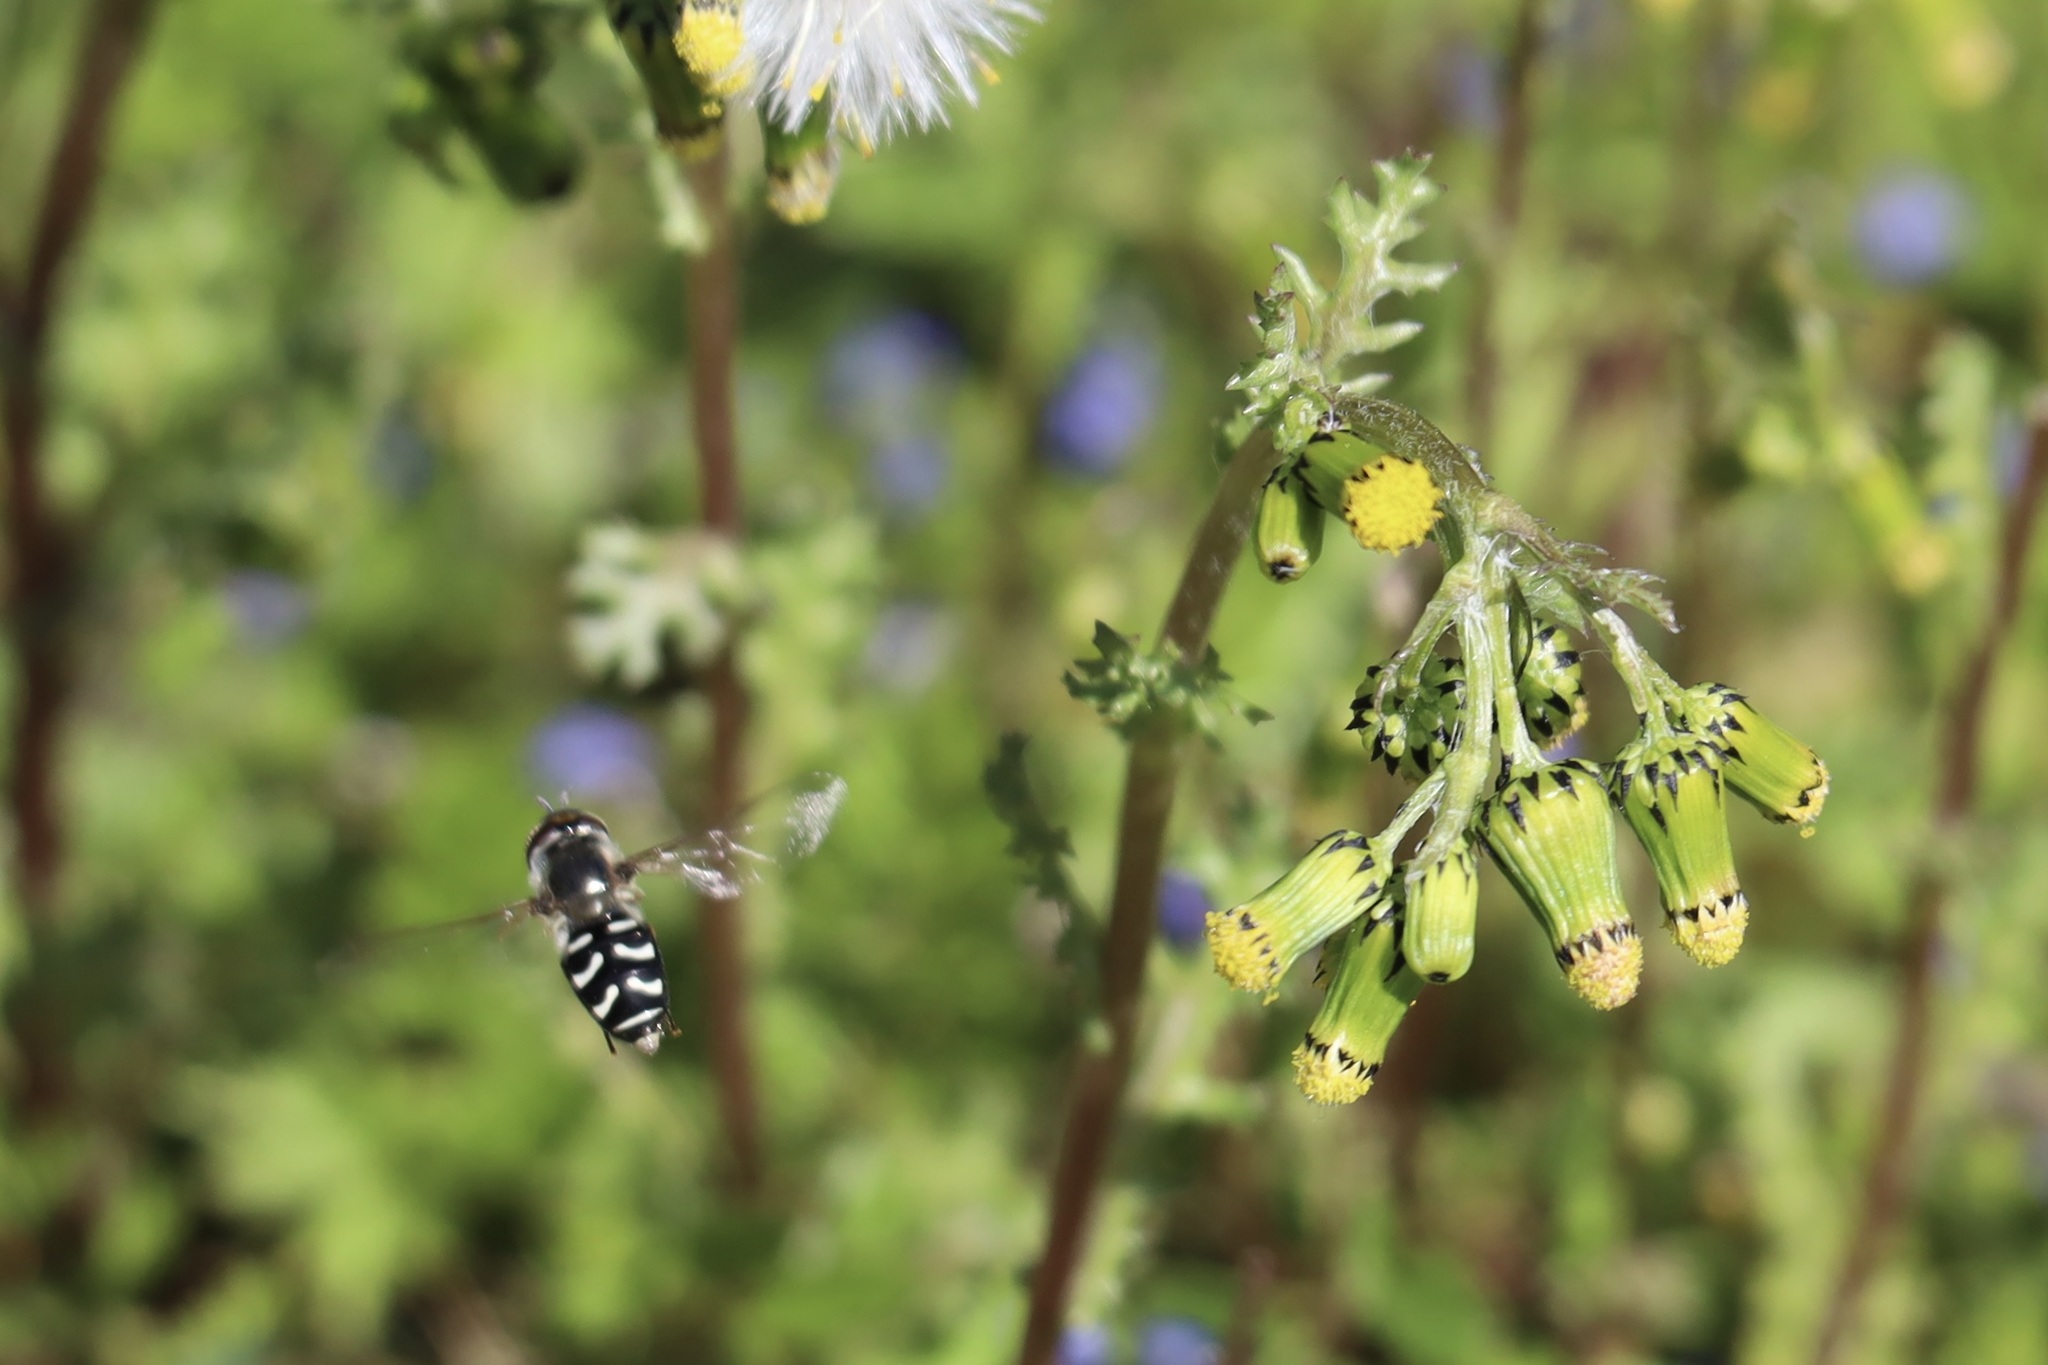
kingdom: Animalia
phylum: Arthropoda
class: Insecta
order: Diptera
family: Syrphidae
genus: Scaeva
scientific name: Scaeva affinis
